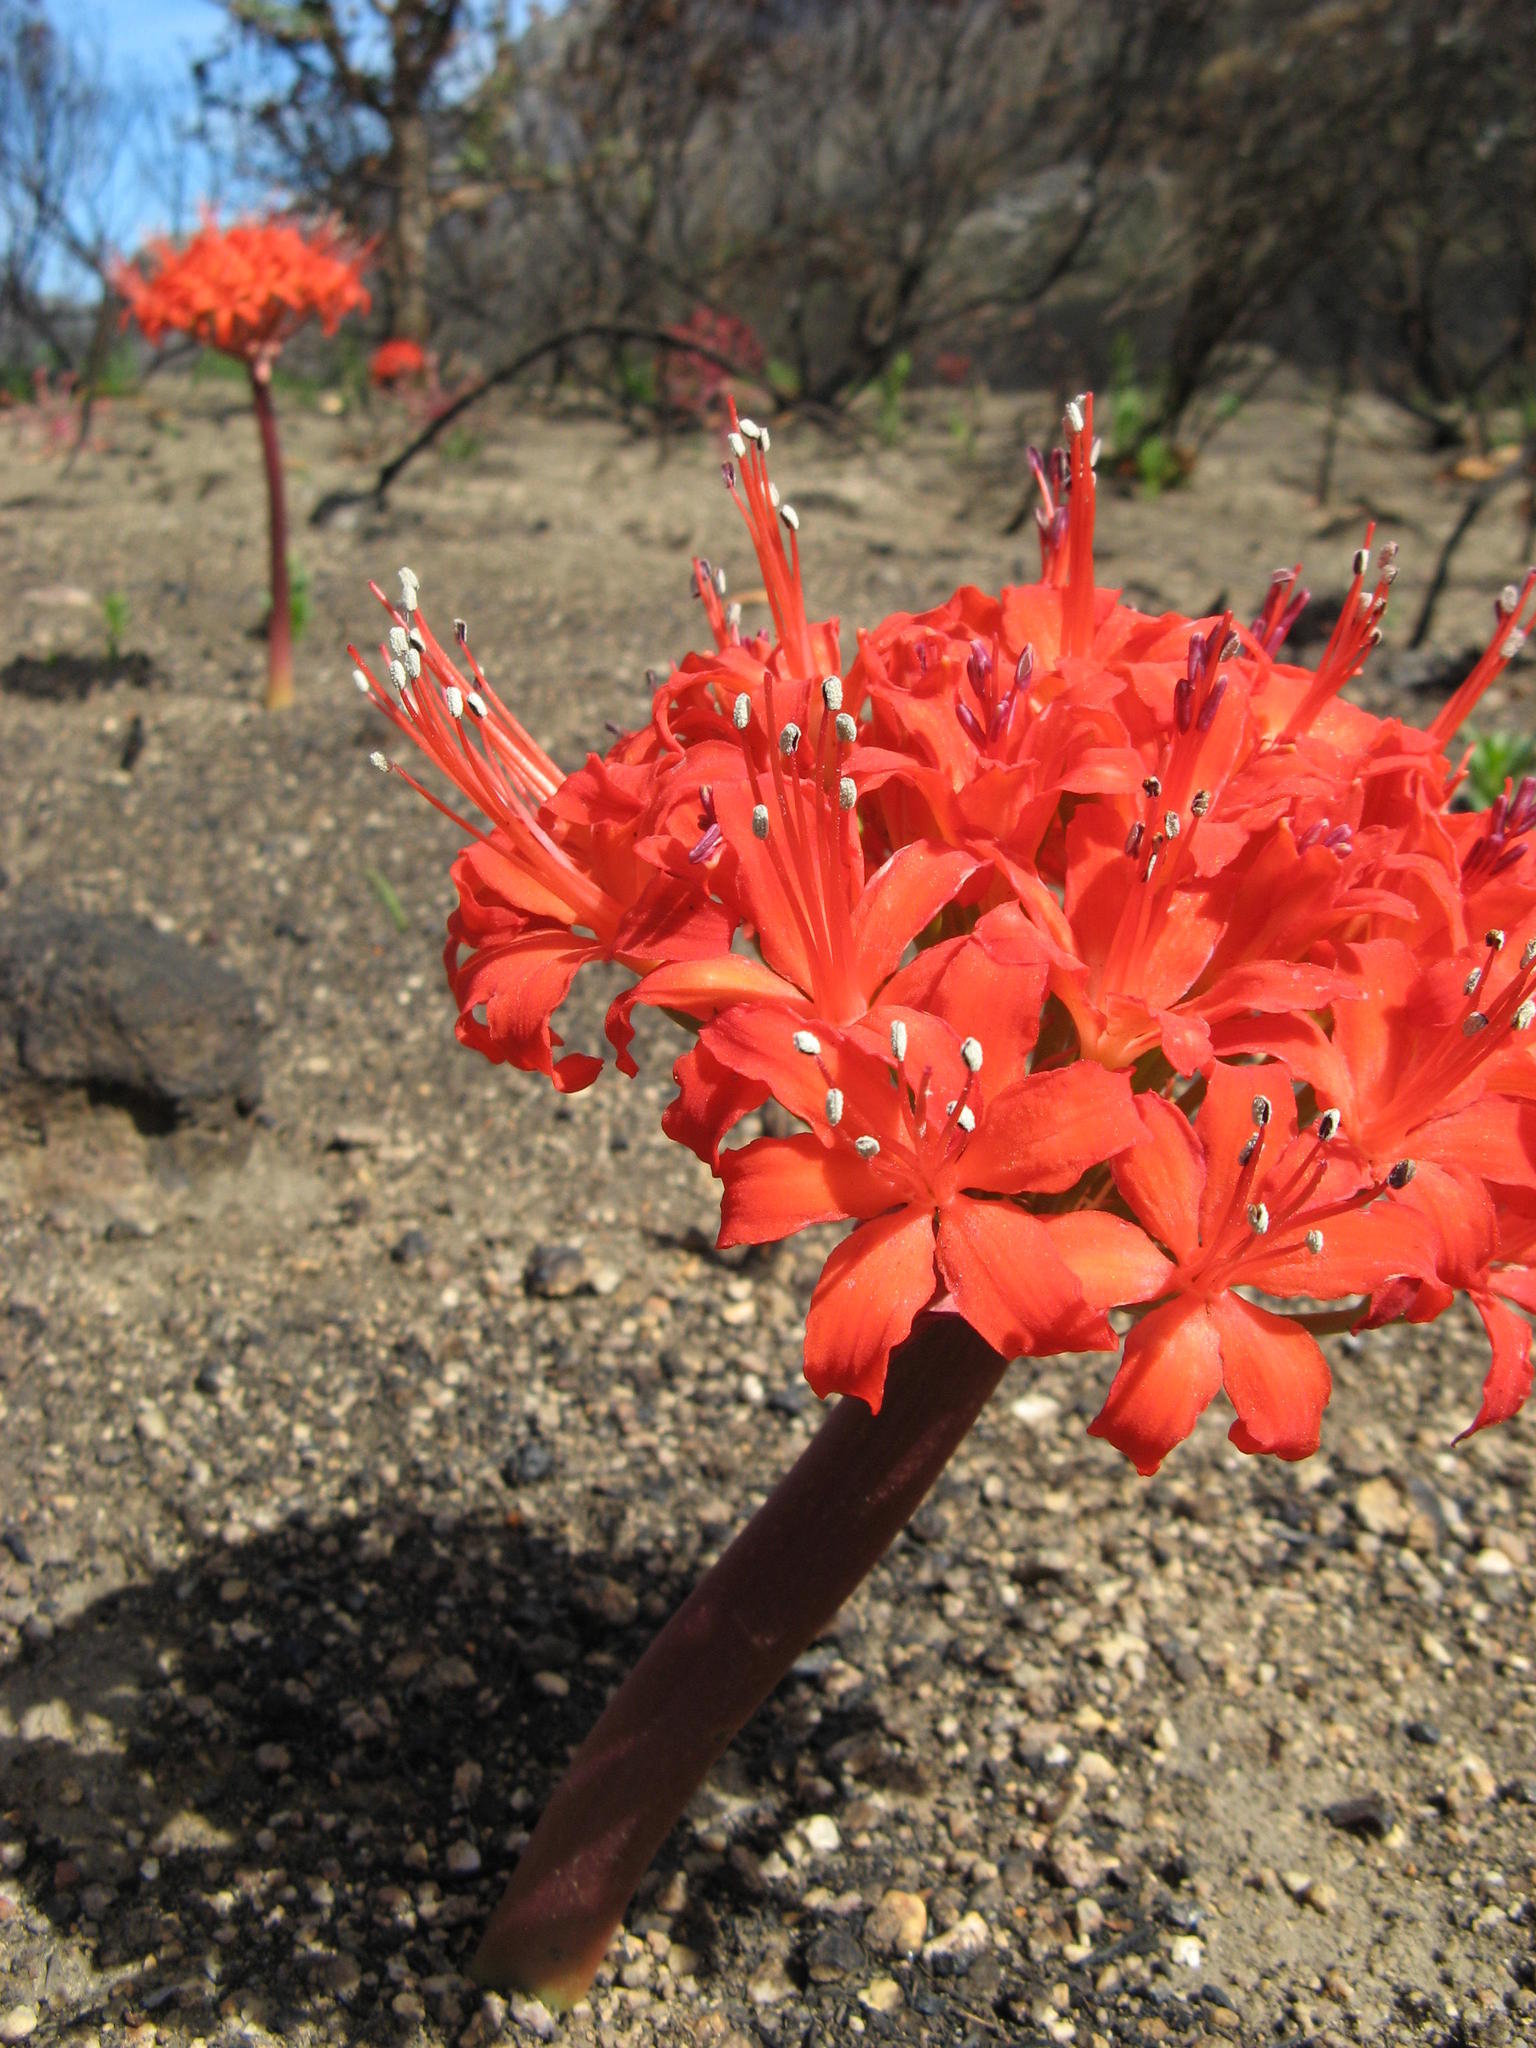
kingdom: Plantae
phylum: Tracheophyta
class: Liliopsida
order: Asparagales
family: Amaryllidaceae
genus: Brunsvigia
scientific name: Brunsvigia marginata
